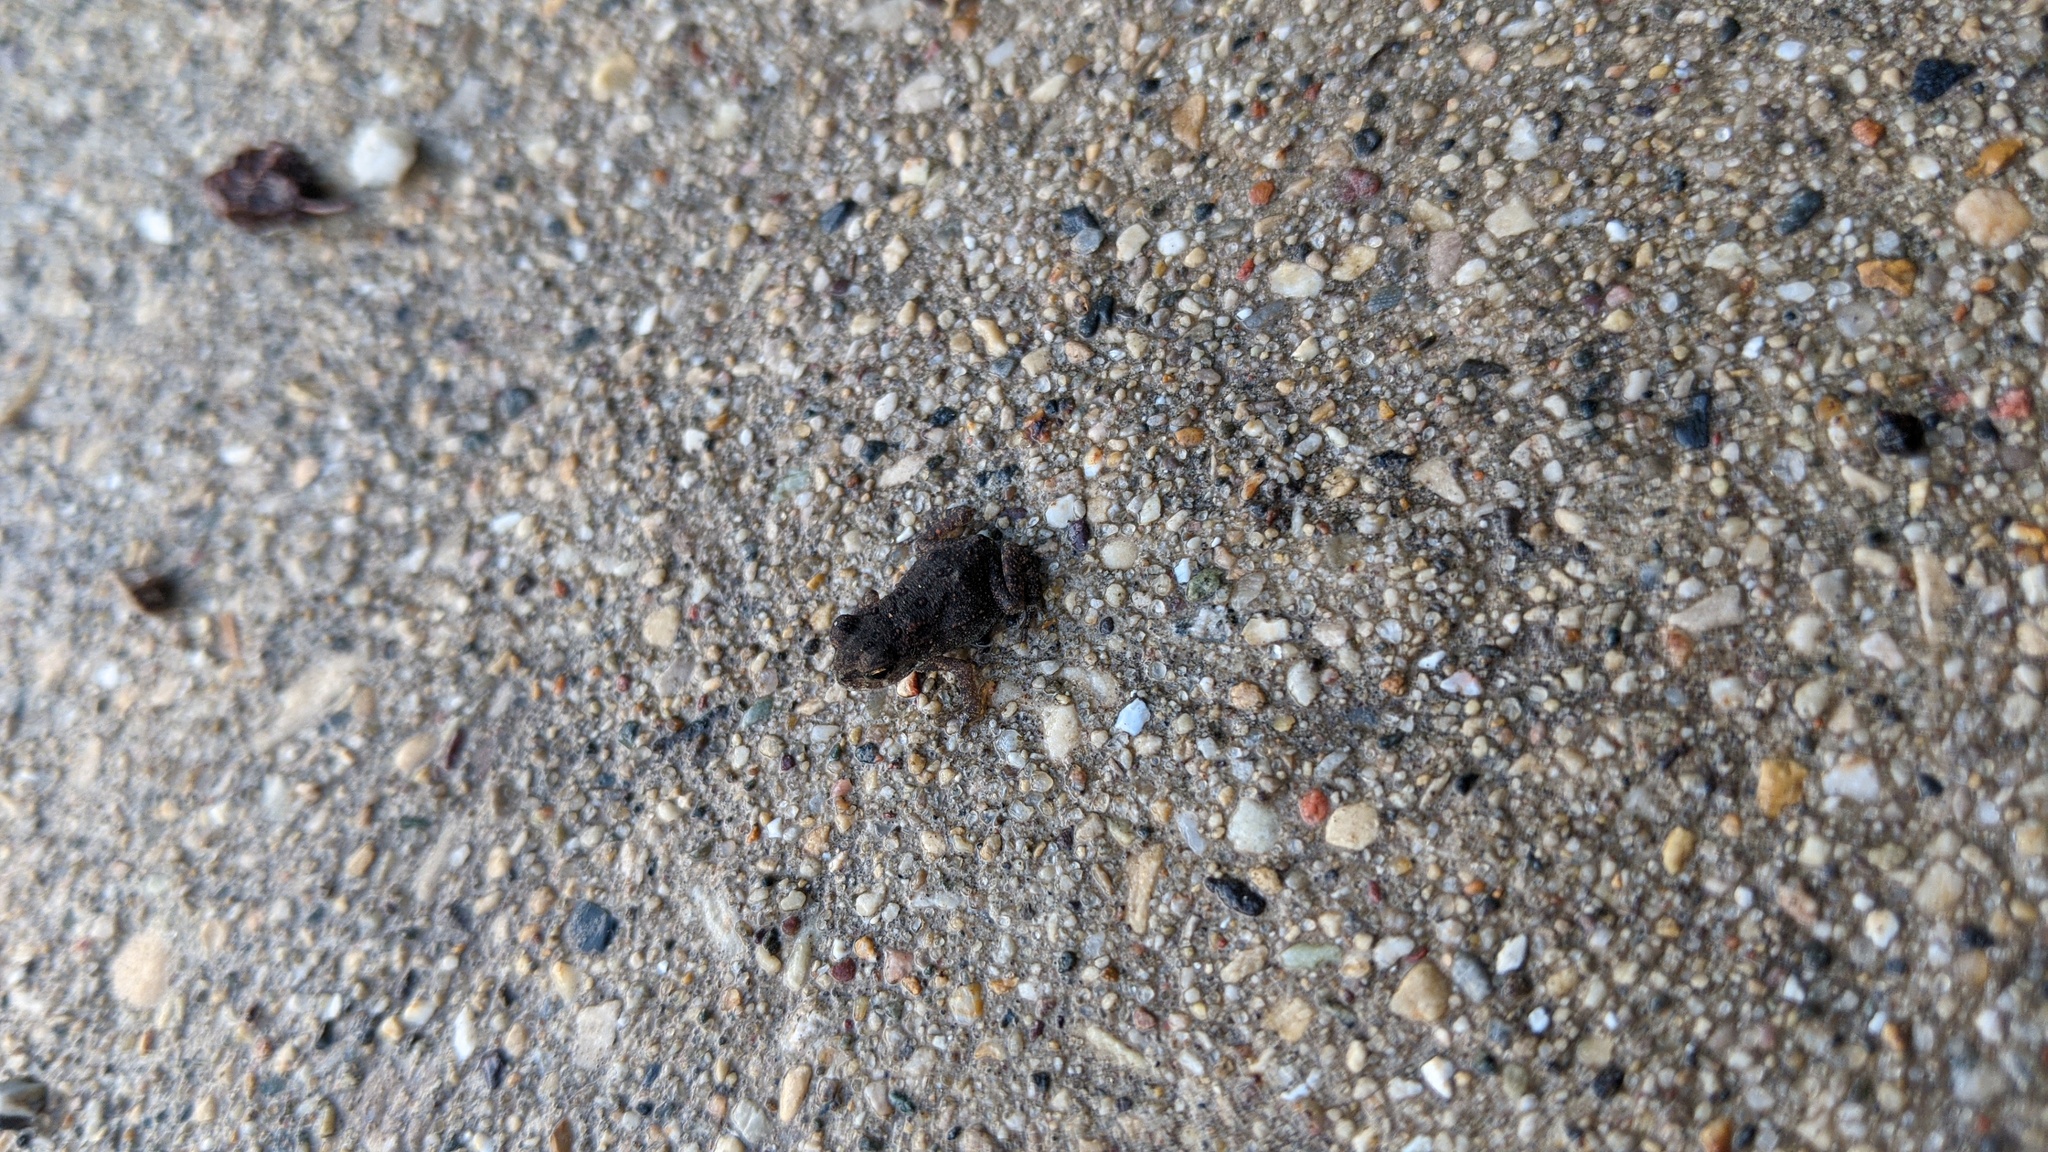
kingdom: Animalia
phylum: Chordata
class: Amphibia
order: Anura
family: Bufonidae
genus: Anaxyrus
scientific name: Anaxyrus americanus
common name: American toad
